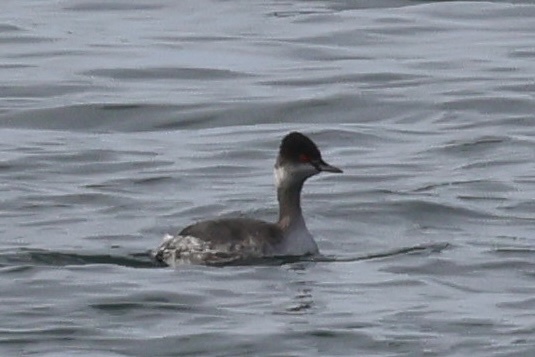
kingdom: Animalia
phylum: Chordata
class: Aves
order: Podicipediformes
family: Podicipedidae
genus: Podiceps
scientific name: Podiceps nigricollis
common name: Black-necked grebe
